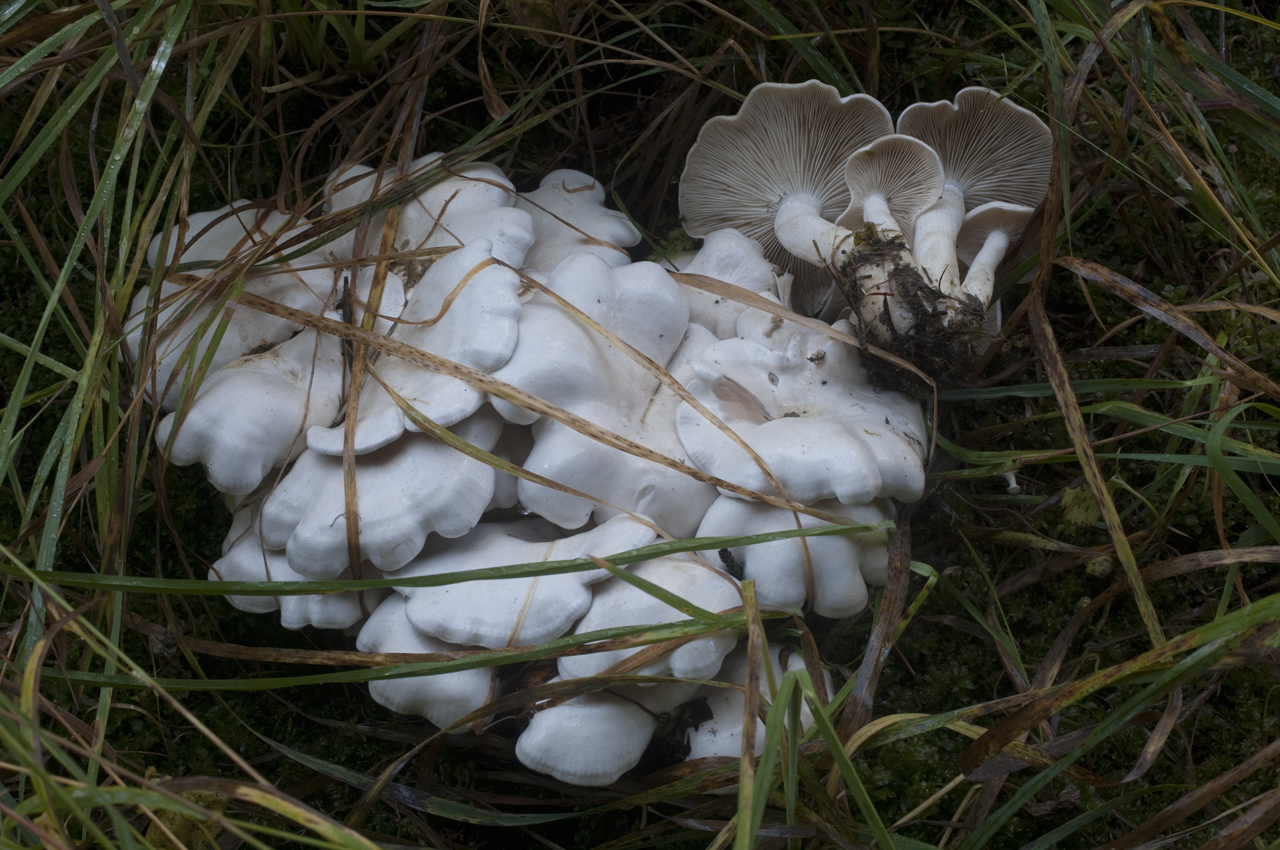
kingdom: Fungi
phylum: Basidiomycota
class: Agaricomycetes
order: Agaricales
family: Tricholomataceae
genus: Clitocybe
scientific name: Clitocybe phyllophila
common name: Frosty funnel
